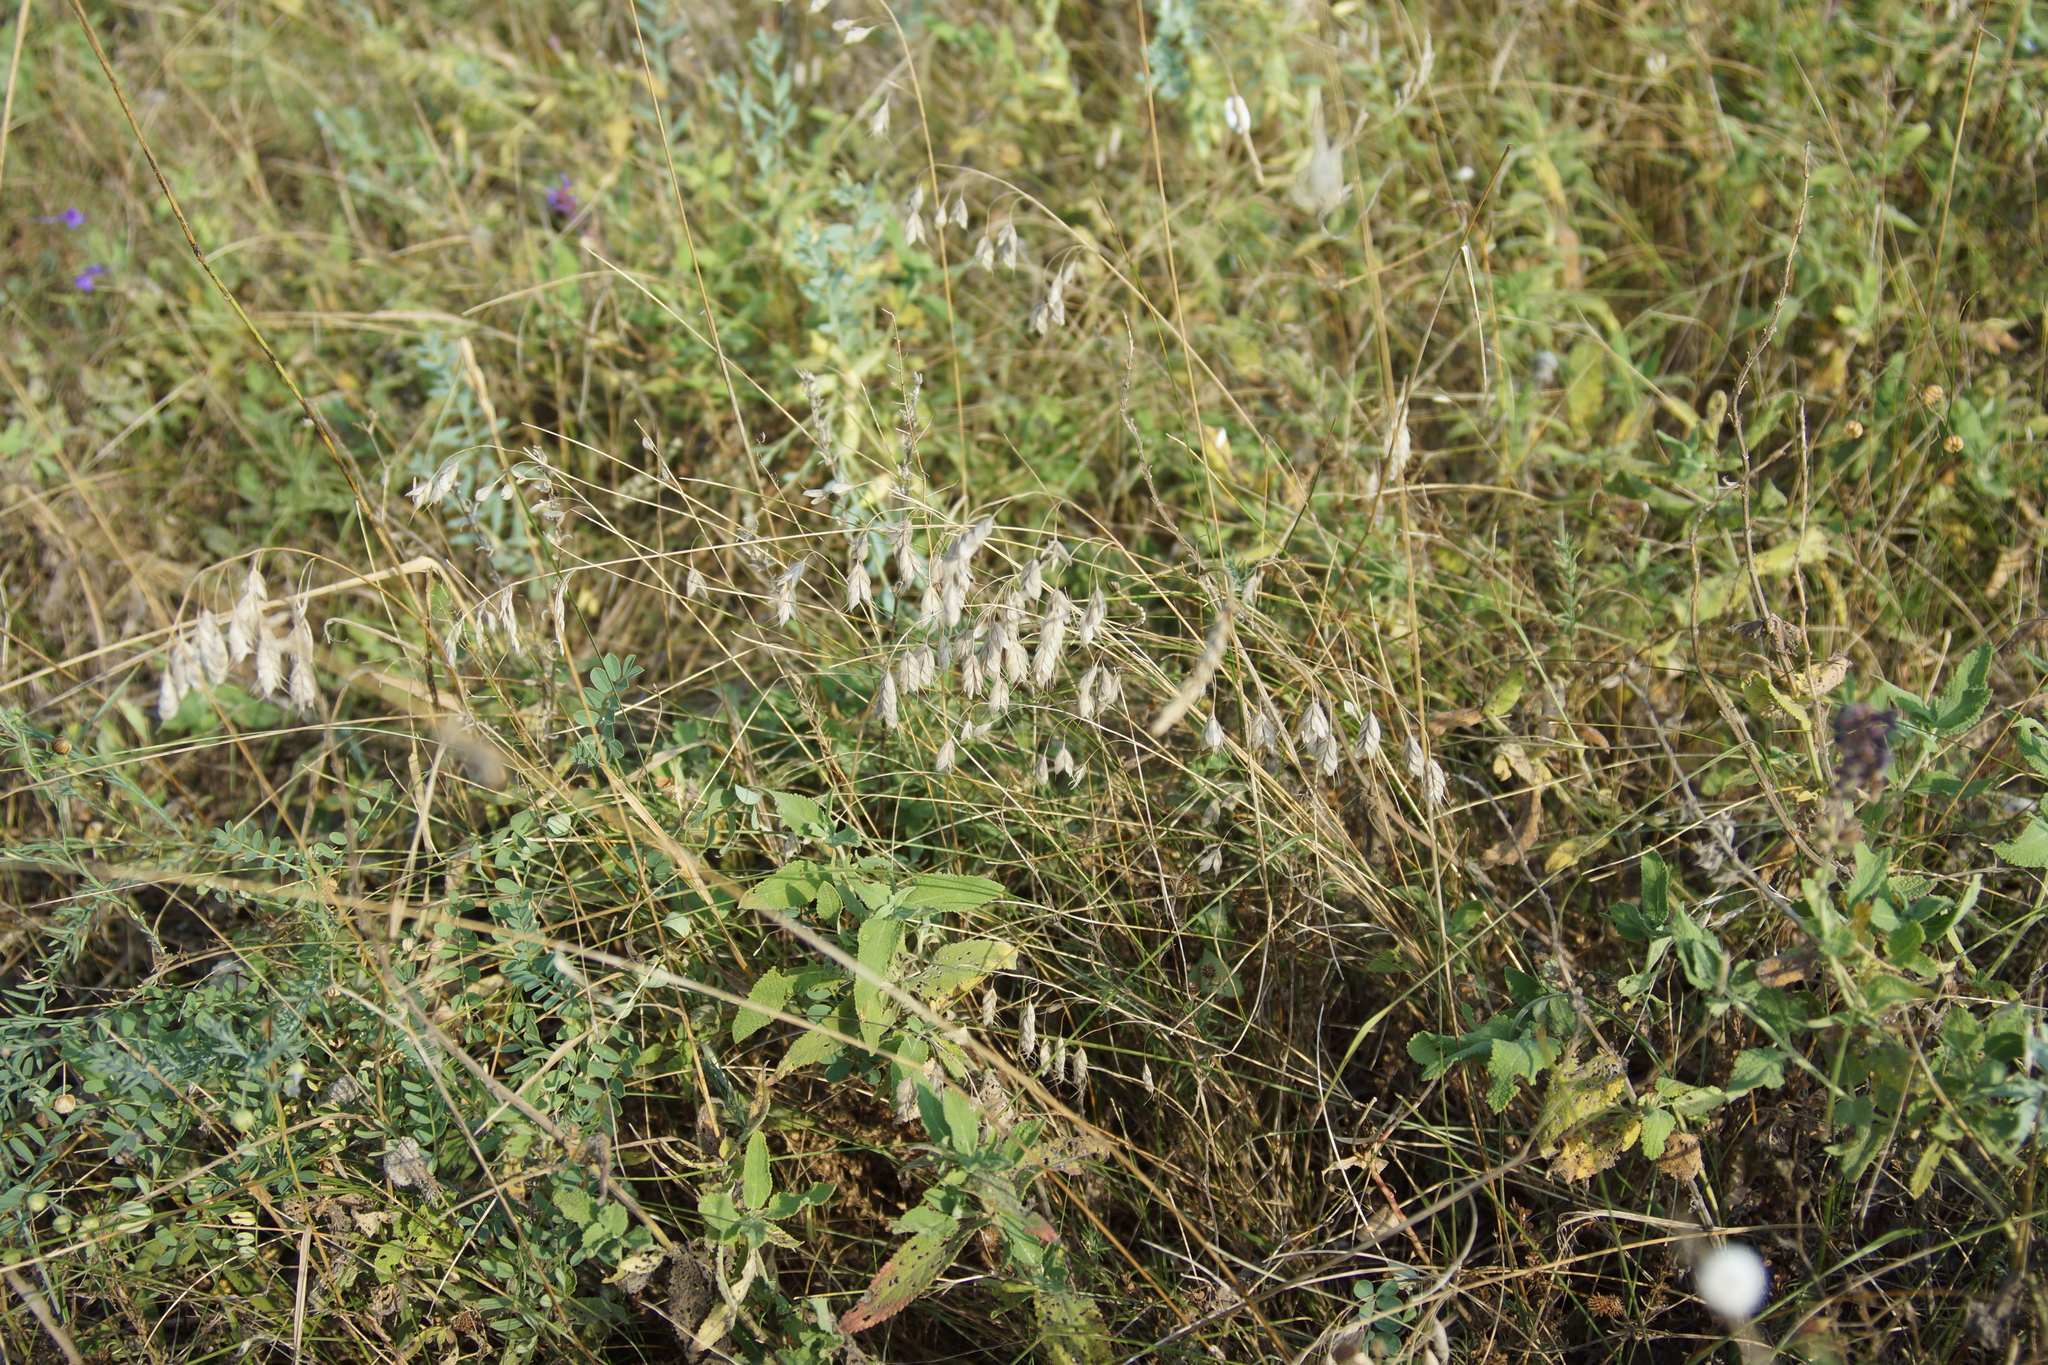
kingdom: Plantae
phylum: Tracheophyta
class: Liliopsida
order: Poales
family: Poaceae
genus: Bromus
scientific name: Bromus squarrosus
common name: Corn brome
